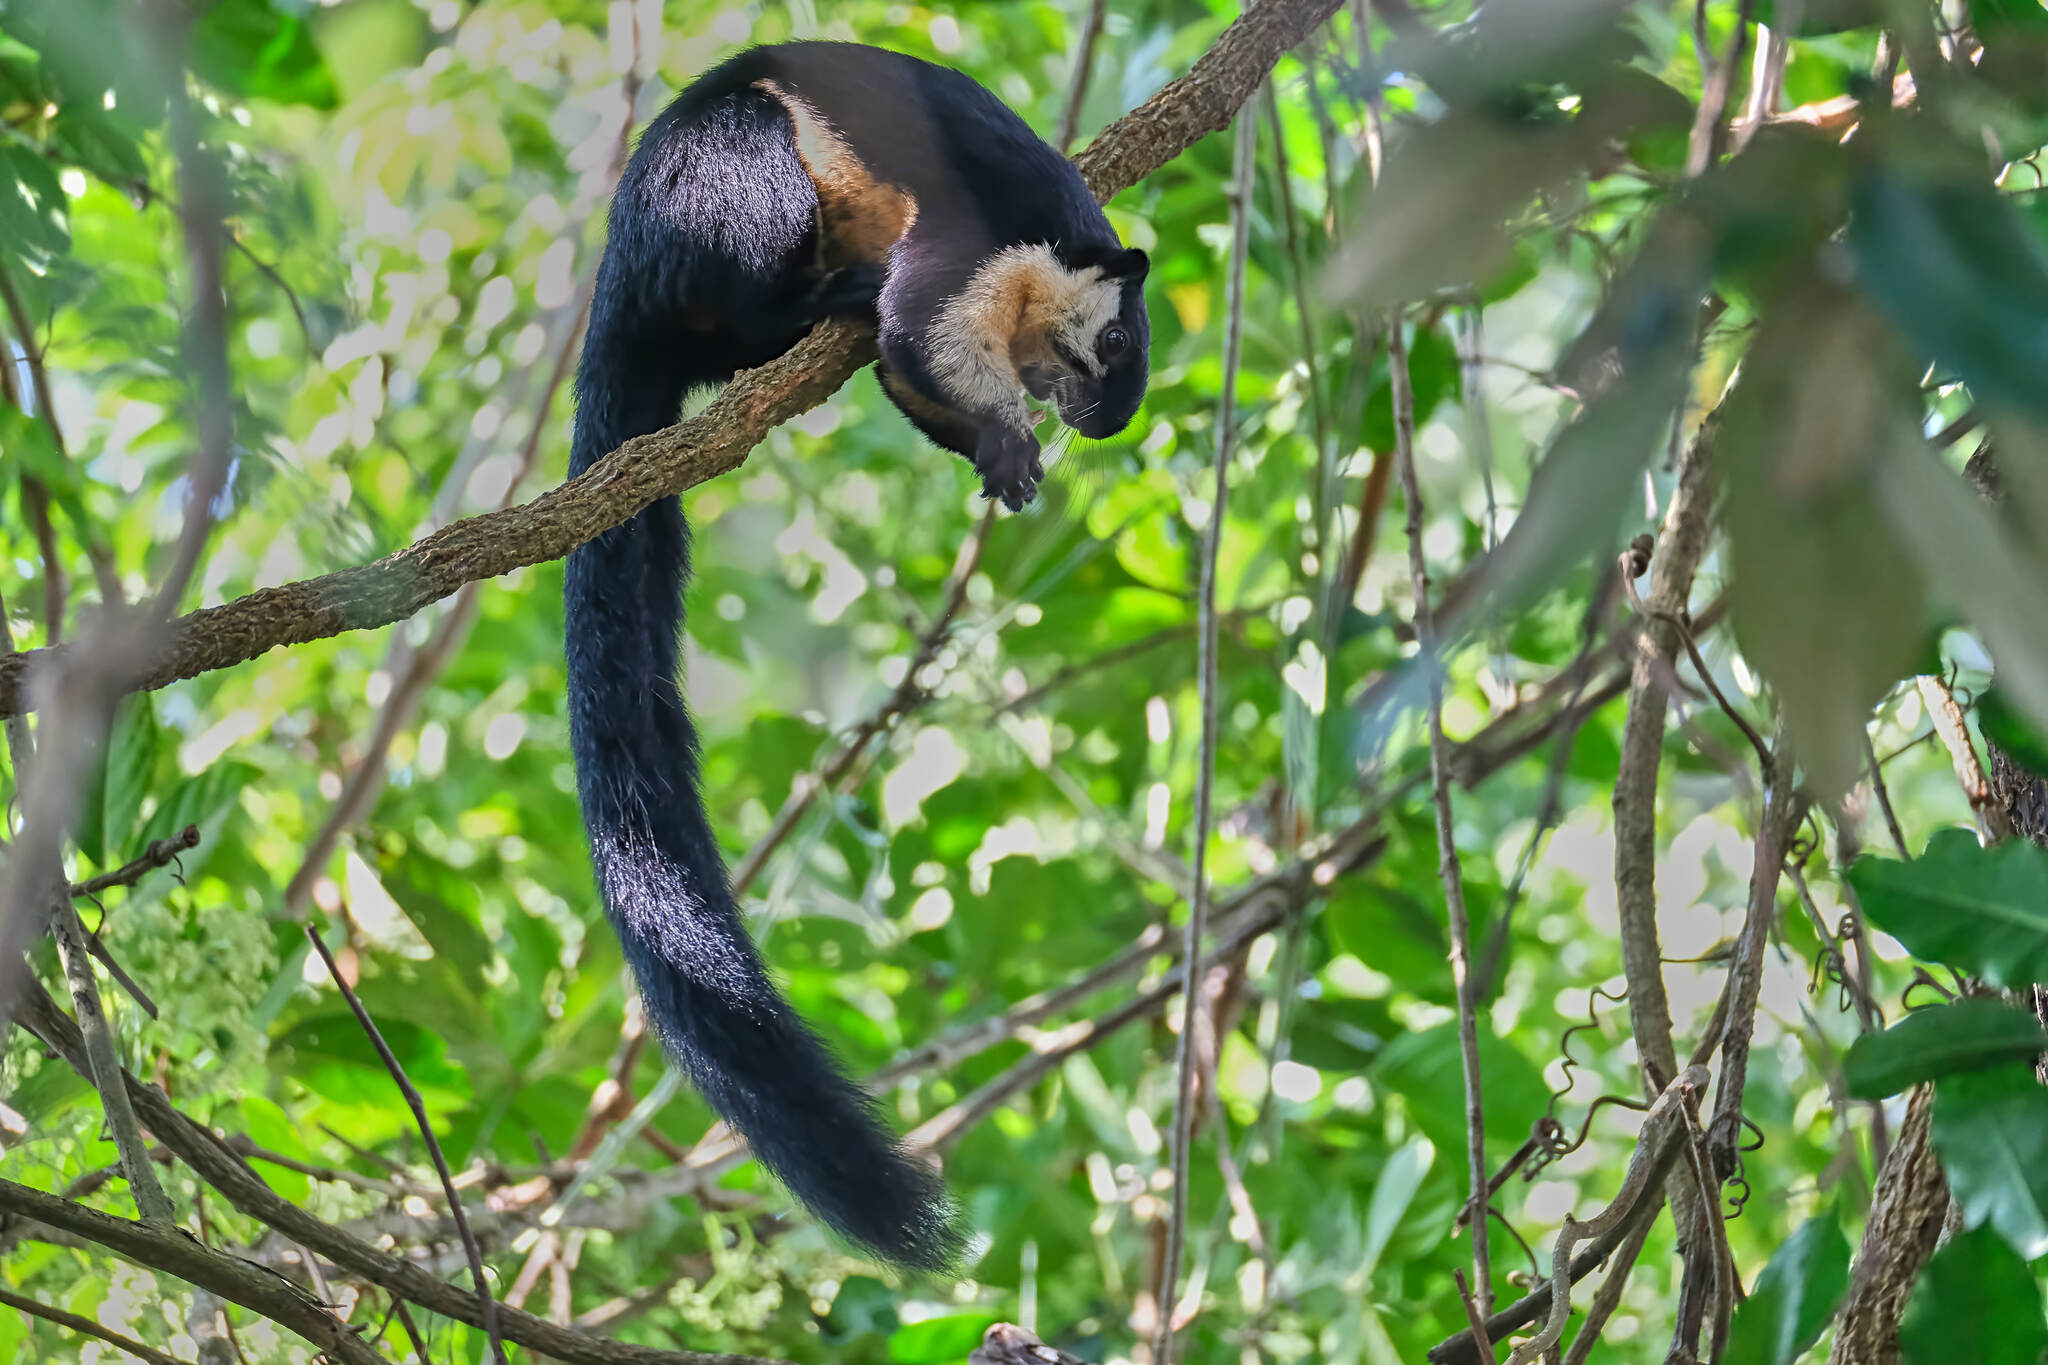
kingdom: Animalia
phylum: Chordata
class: Mammalia
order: Rodentia
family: Sciuridae
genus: Ratufa
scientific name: Ratufa bicolor
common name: Black giant squirrel
